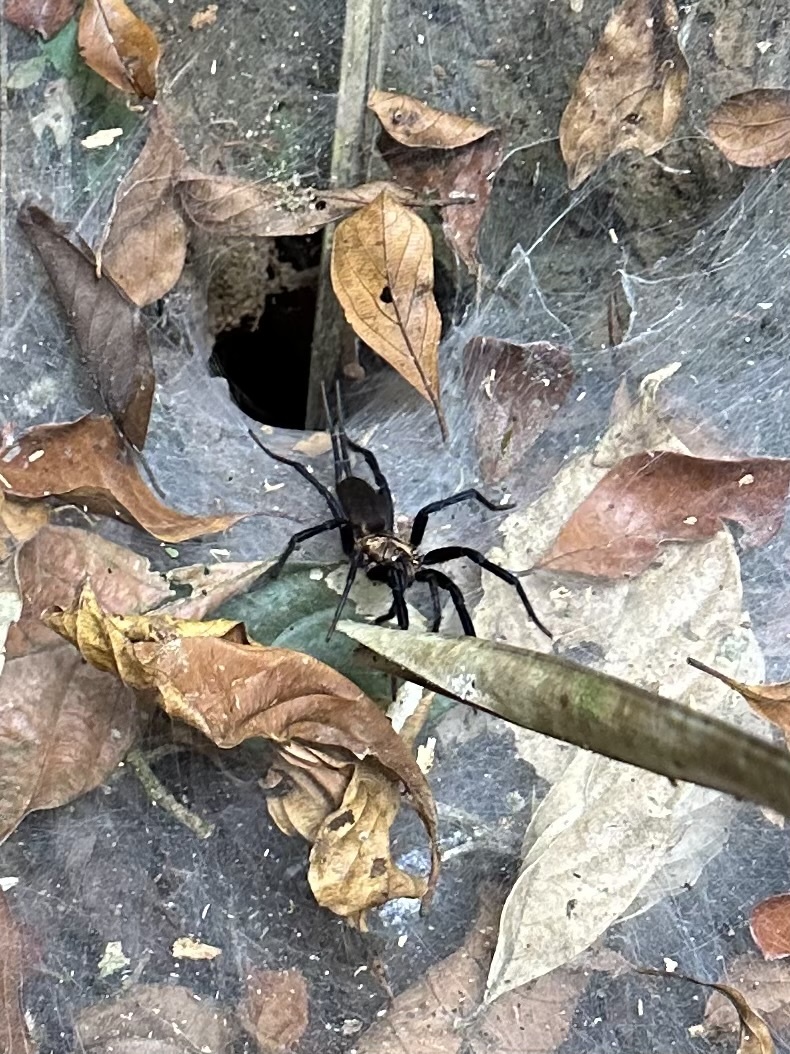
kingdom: Animalia
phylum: Arthropoda
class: Arachnida
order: Araneae
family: Dipluridae
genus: Linothele
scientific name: Linothele sericata
